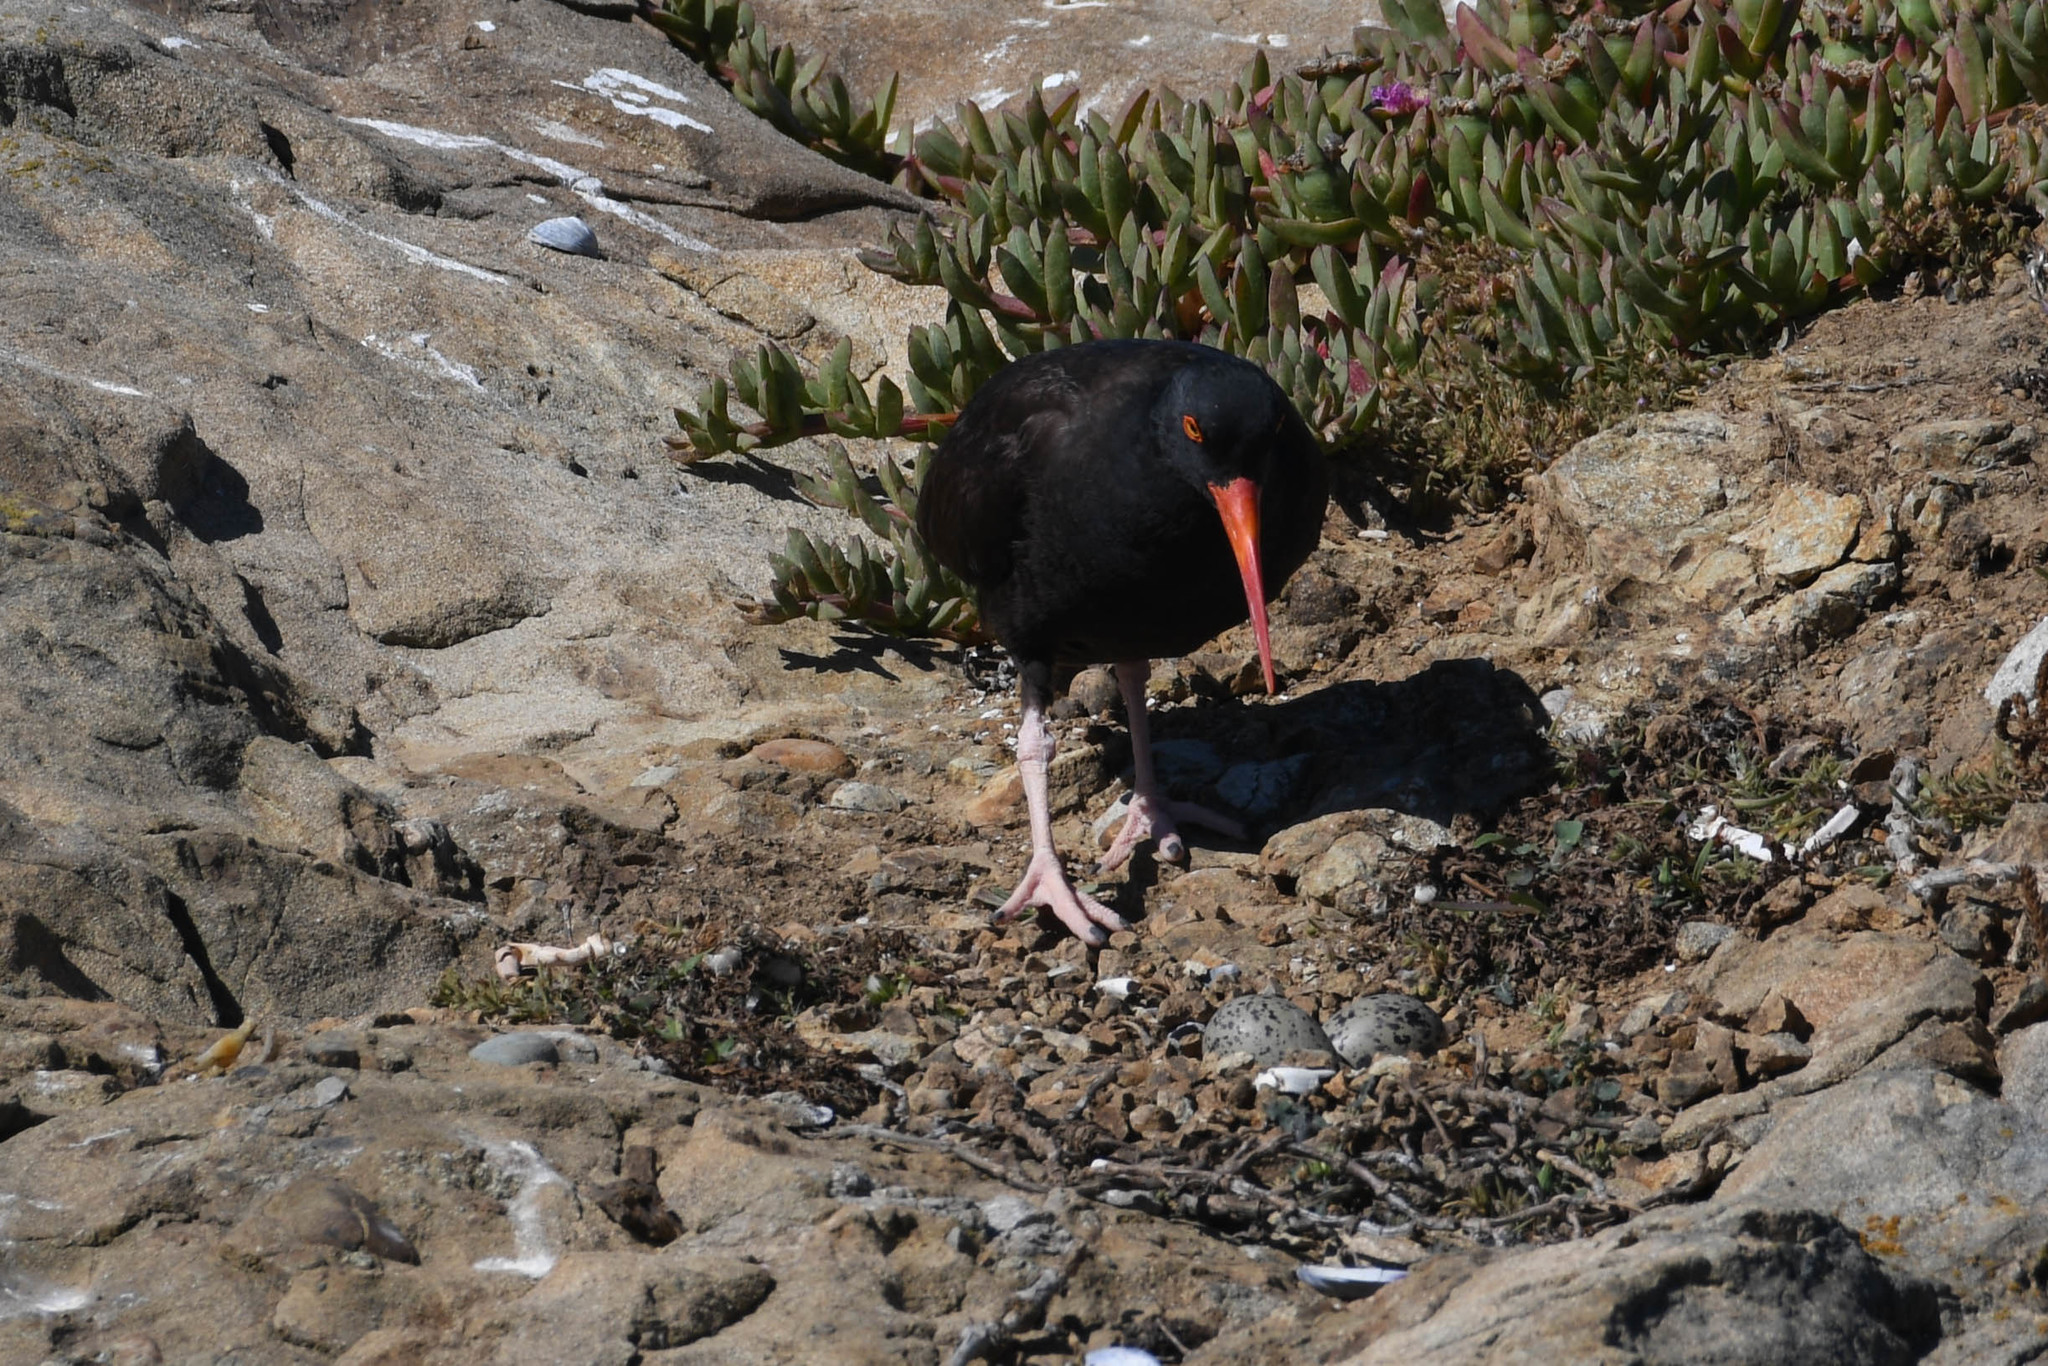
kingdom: Animalia
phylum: Chordata
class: Aves
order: Charadriiformes
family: Haematopodidae
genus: Haematopus
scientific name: Haematopus bachmani
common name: Black oystercatcher
